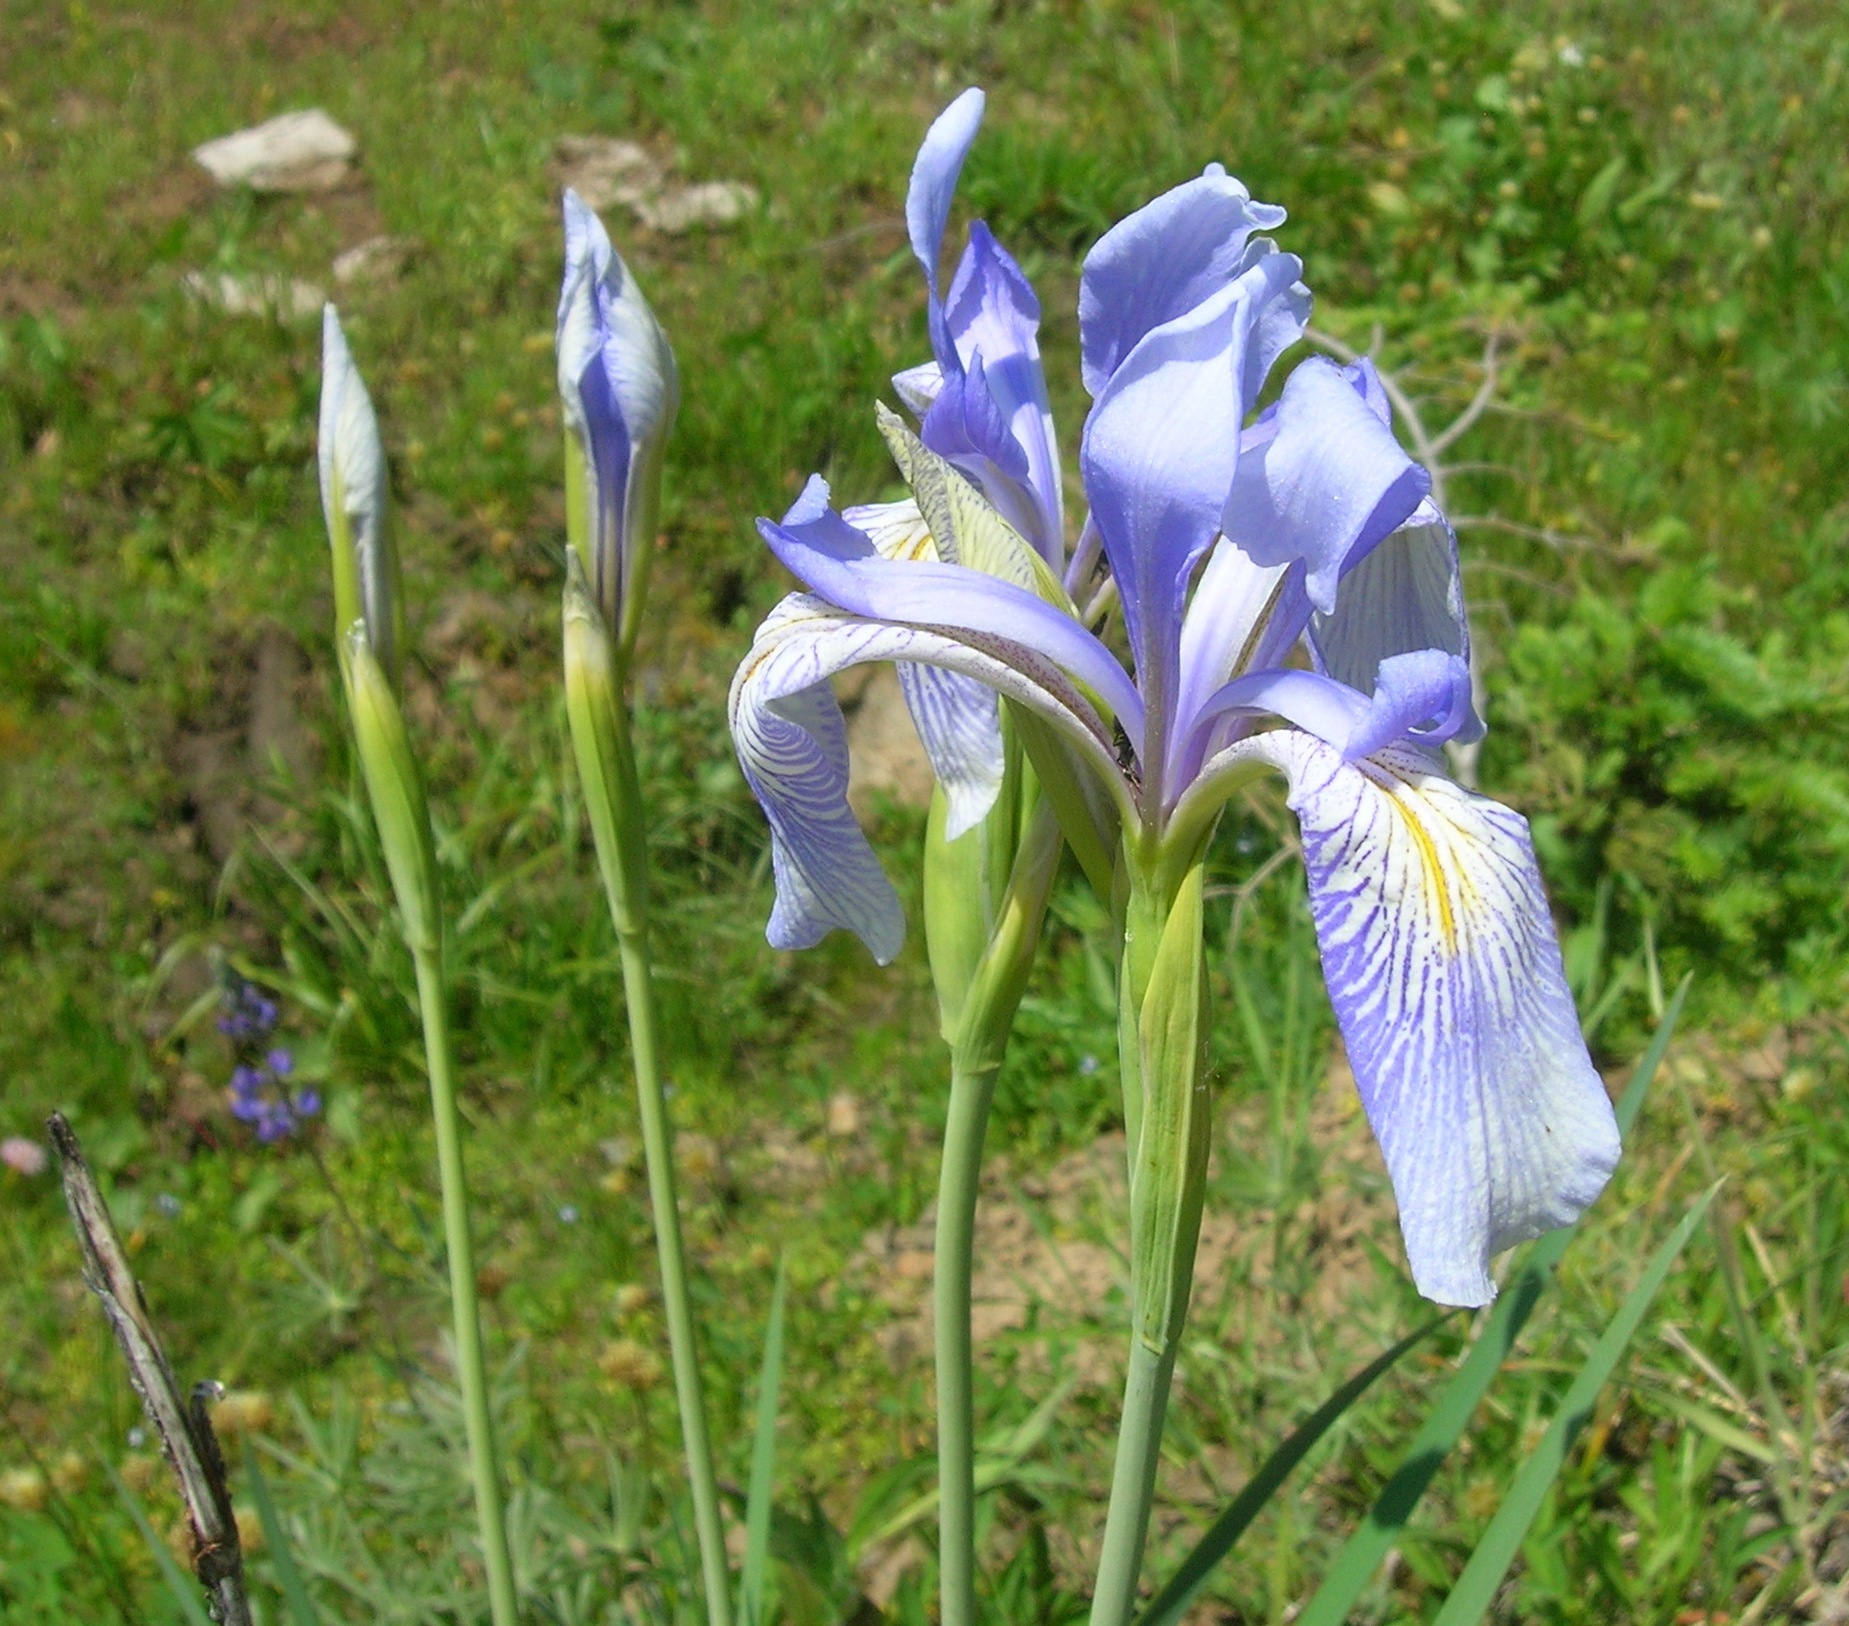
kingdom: Plantae
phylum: Tracheophyta
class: Liliopsida
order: Asparagales
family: Iridaceae
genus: Iris
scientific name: Iris missouriensis
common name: Rocky mountain iris
